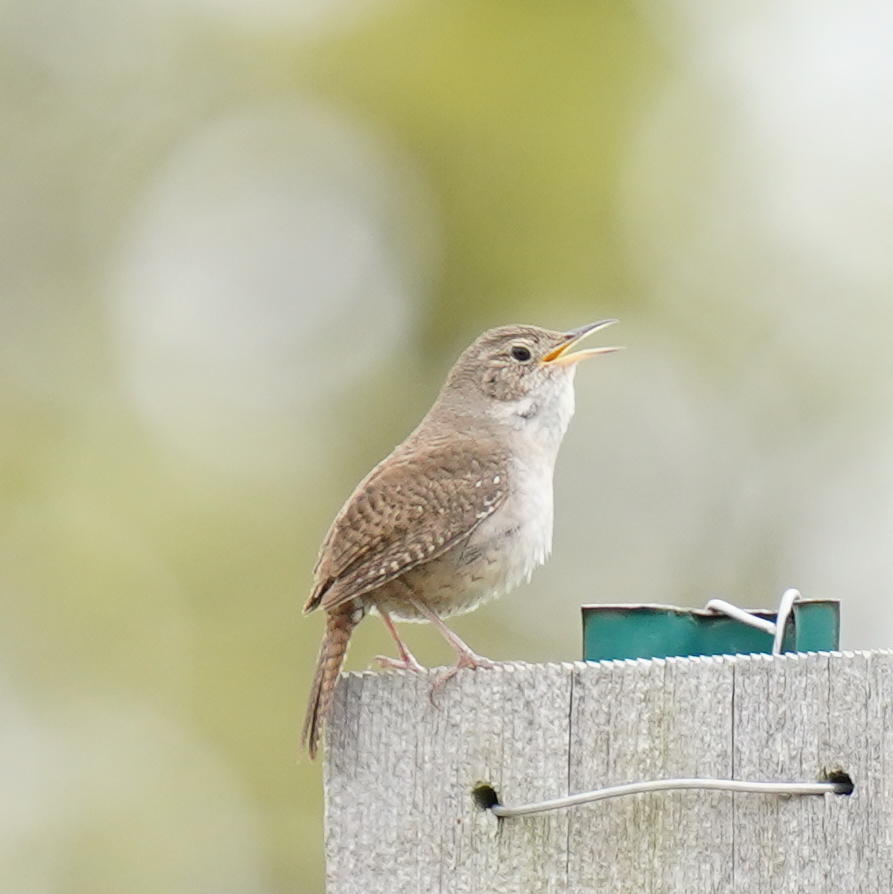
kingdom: Animalia
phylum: Chordata
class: Aves
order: Passeriformes
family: Troglodytidae
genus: Troglodytes
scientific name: Troglodytes aedon
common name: House wren
